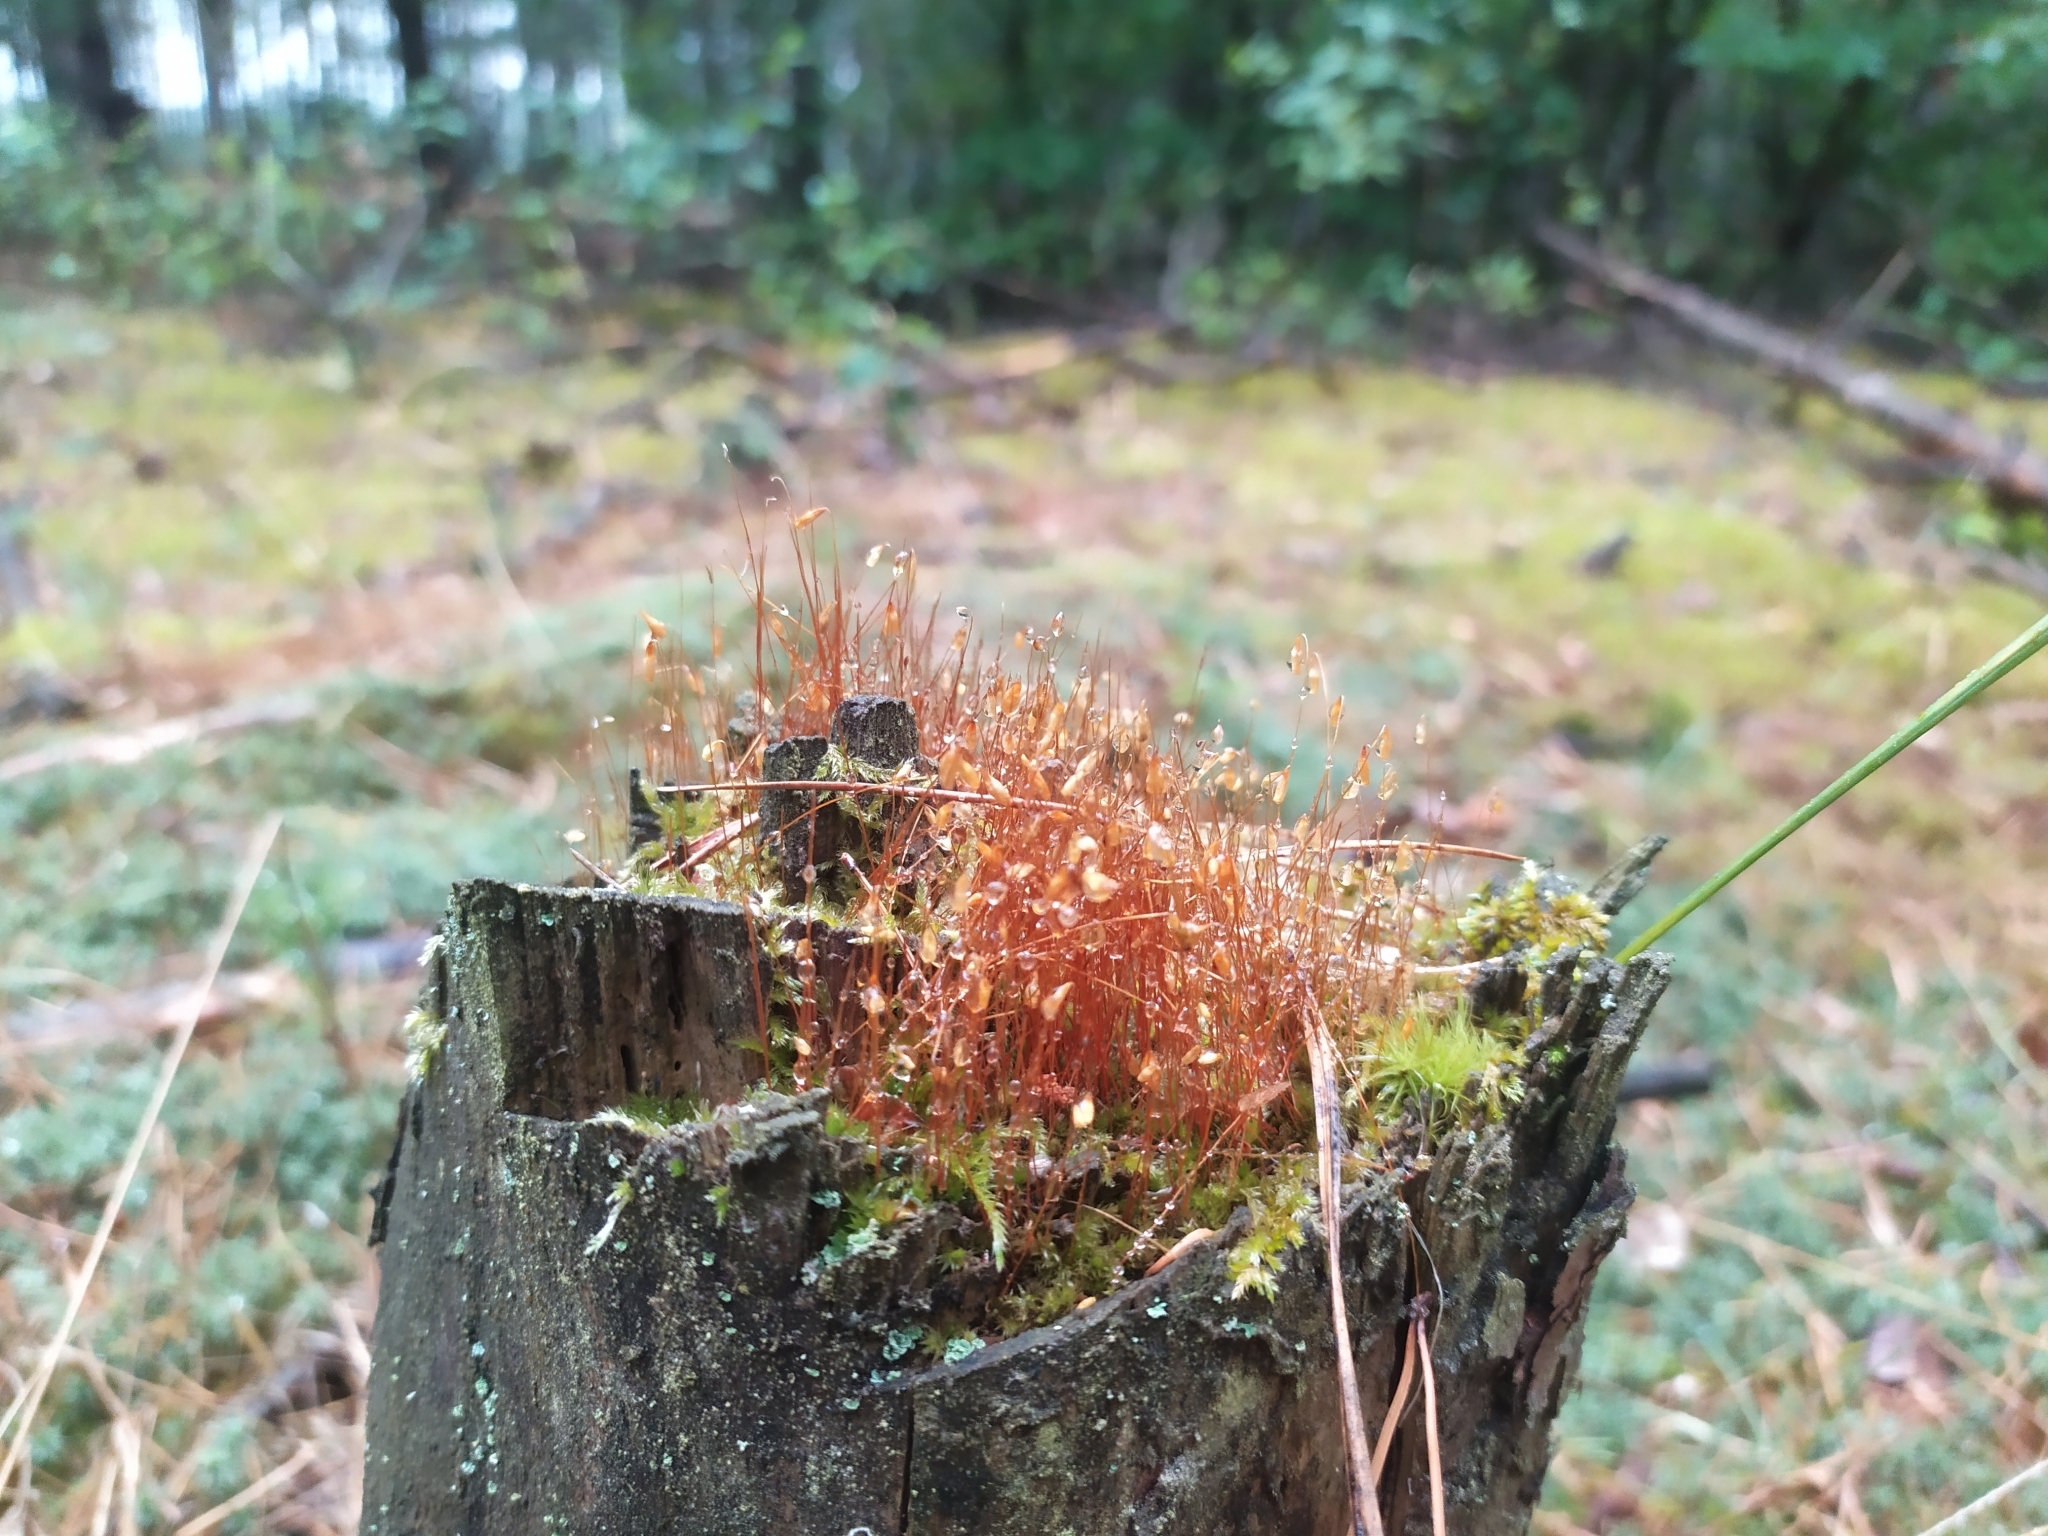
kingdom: Plantae
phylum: Bryophyta
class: Bryopsida
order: Bryales
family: Mniaceae
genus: Pohlia
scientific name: Pohlia nutans
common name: Nodding thread-moss
